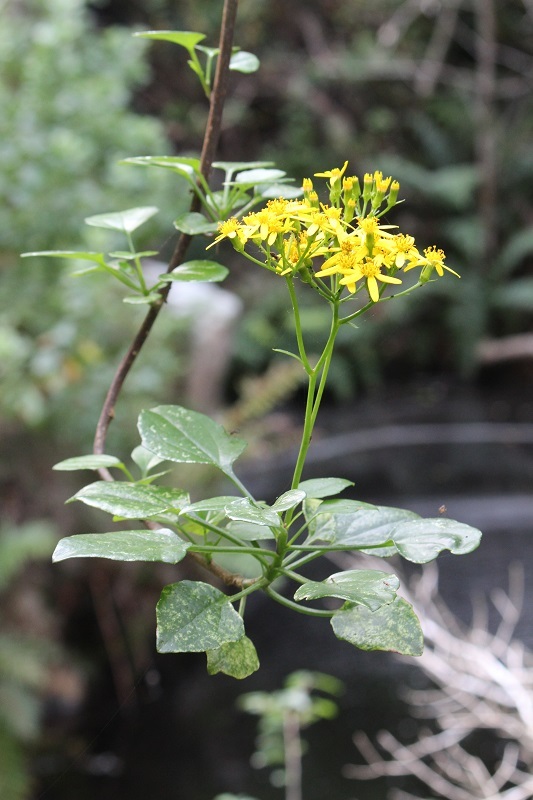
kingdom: Plantae
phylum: Tracheophyta
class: Magnoliopsida
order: Asterales
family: Asteraceae
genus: Senecio
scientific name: Senecio angulatus
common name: Climbing groundsel
